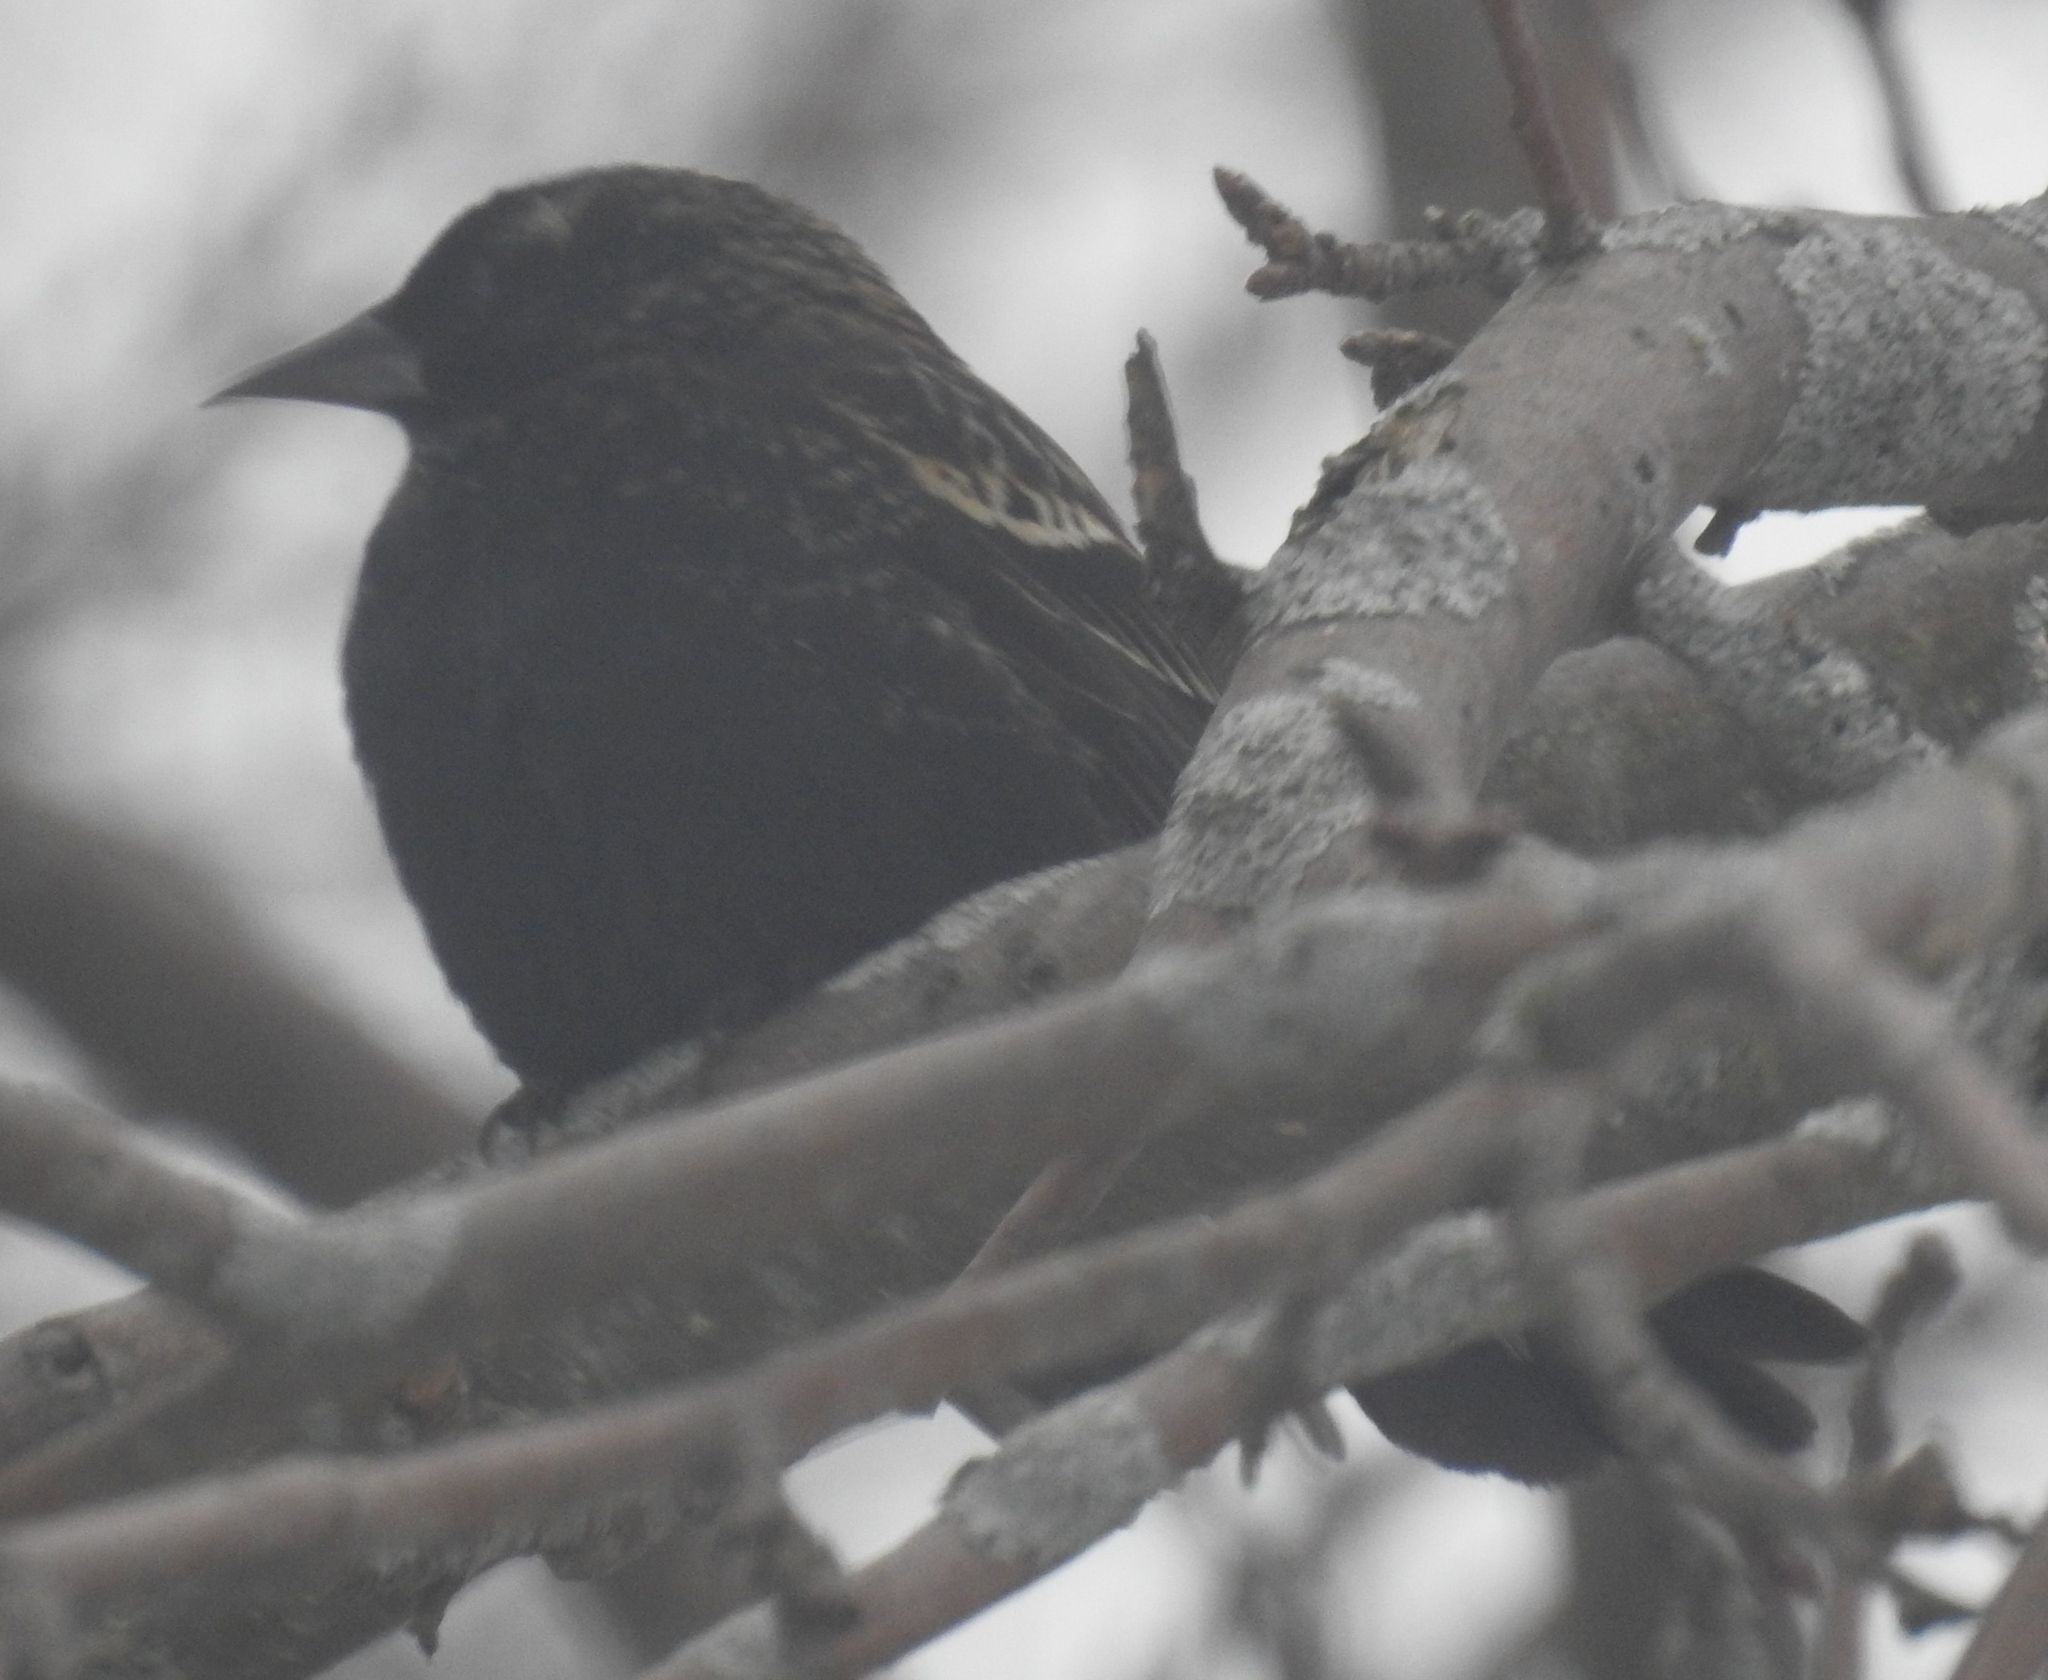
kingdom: Animalia
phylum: Chordata
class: Aves
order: Passeriformes
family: Icteridae
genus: Agelaius
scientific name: Agelaius phoeniceus
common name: Red-winged blackbird
